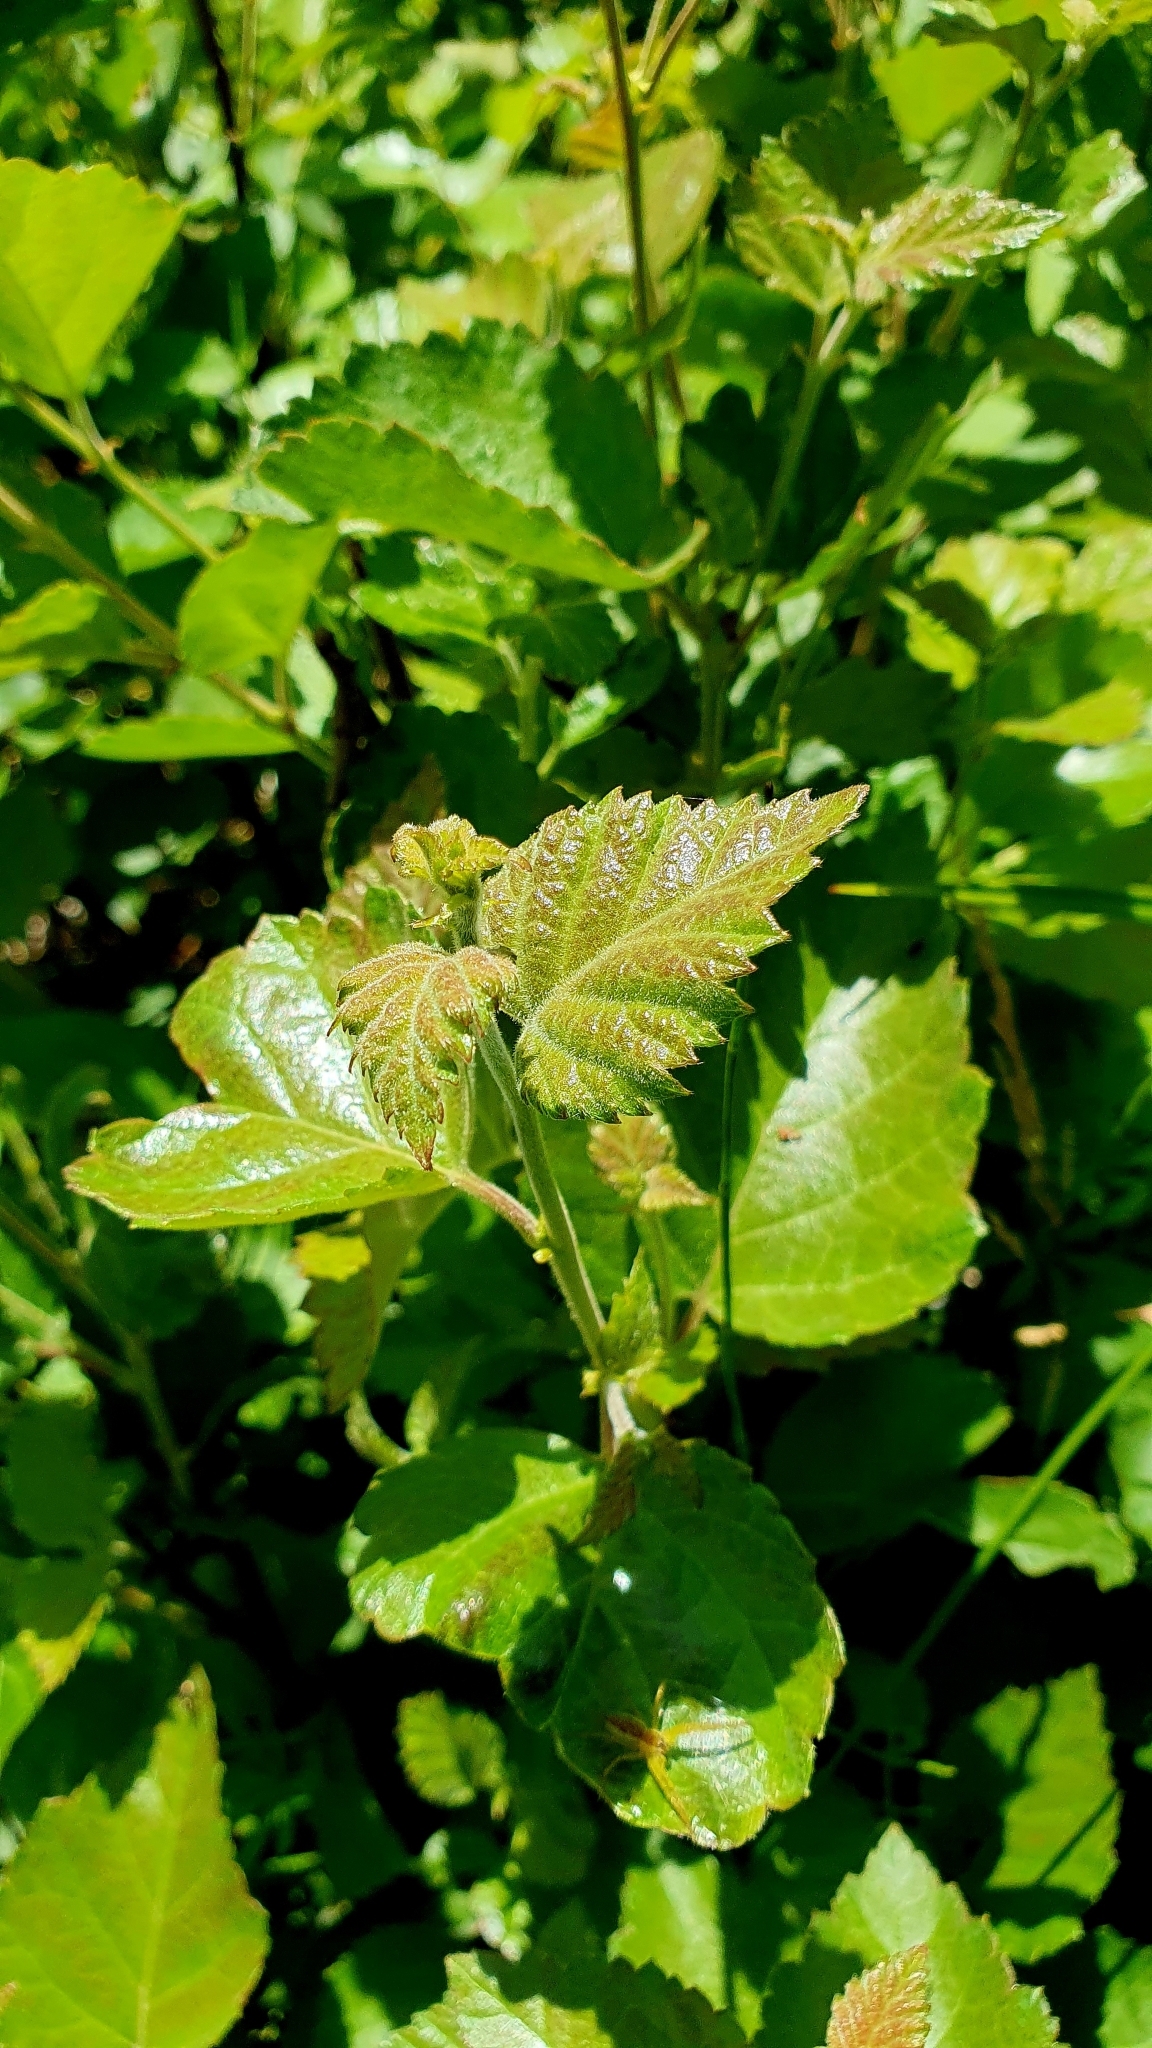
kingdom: Plantae
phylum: Tracheophyta
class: Magnoliopsida
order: Fagales
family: Betulaceae
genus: Betula
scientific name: Betula pubescens
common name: Downy birch
